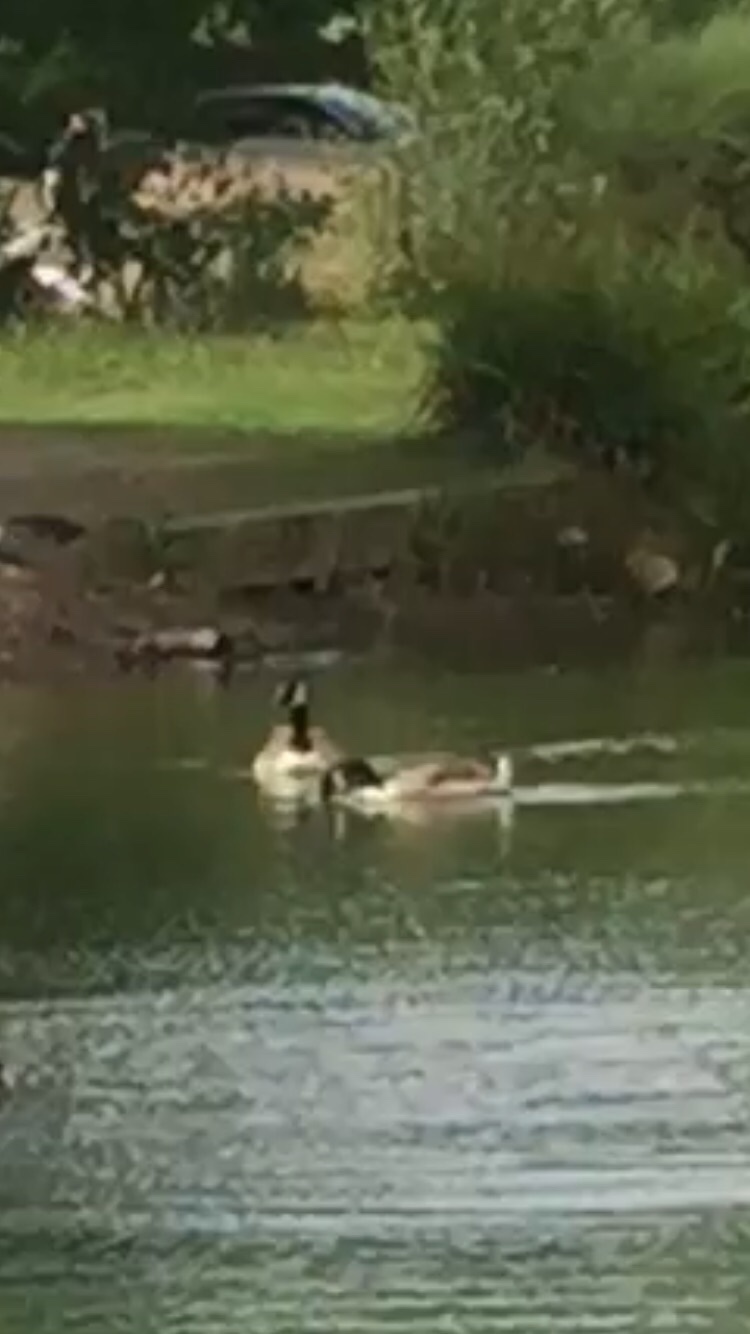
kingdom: Animalia
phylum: Chordata
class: Aves
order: Anseriformes
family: Anatidae
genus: Branta
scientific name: Branta canadensis
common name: Canada goose
